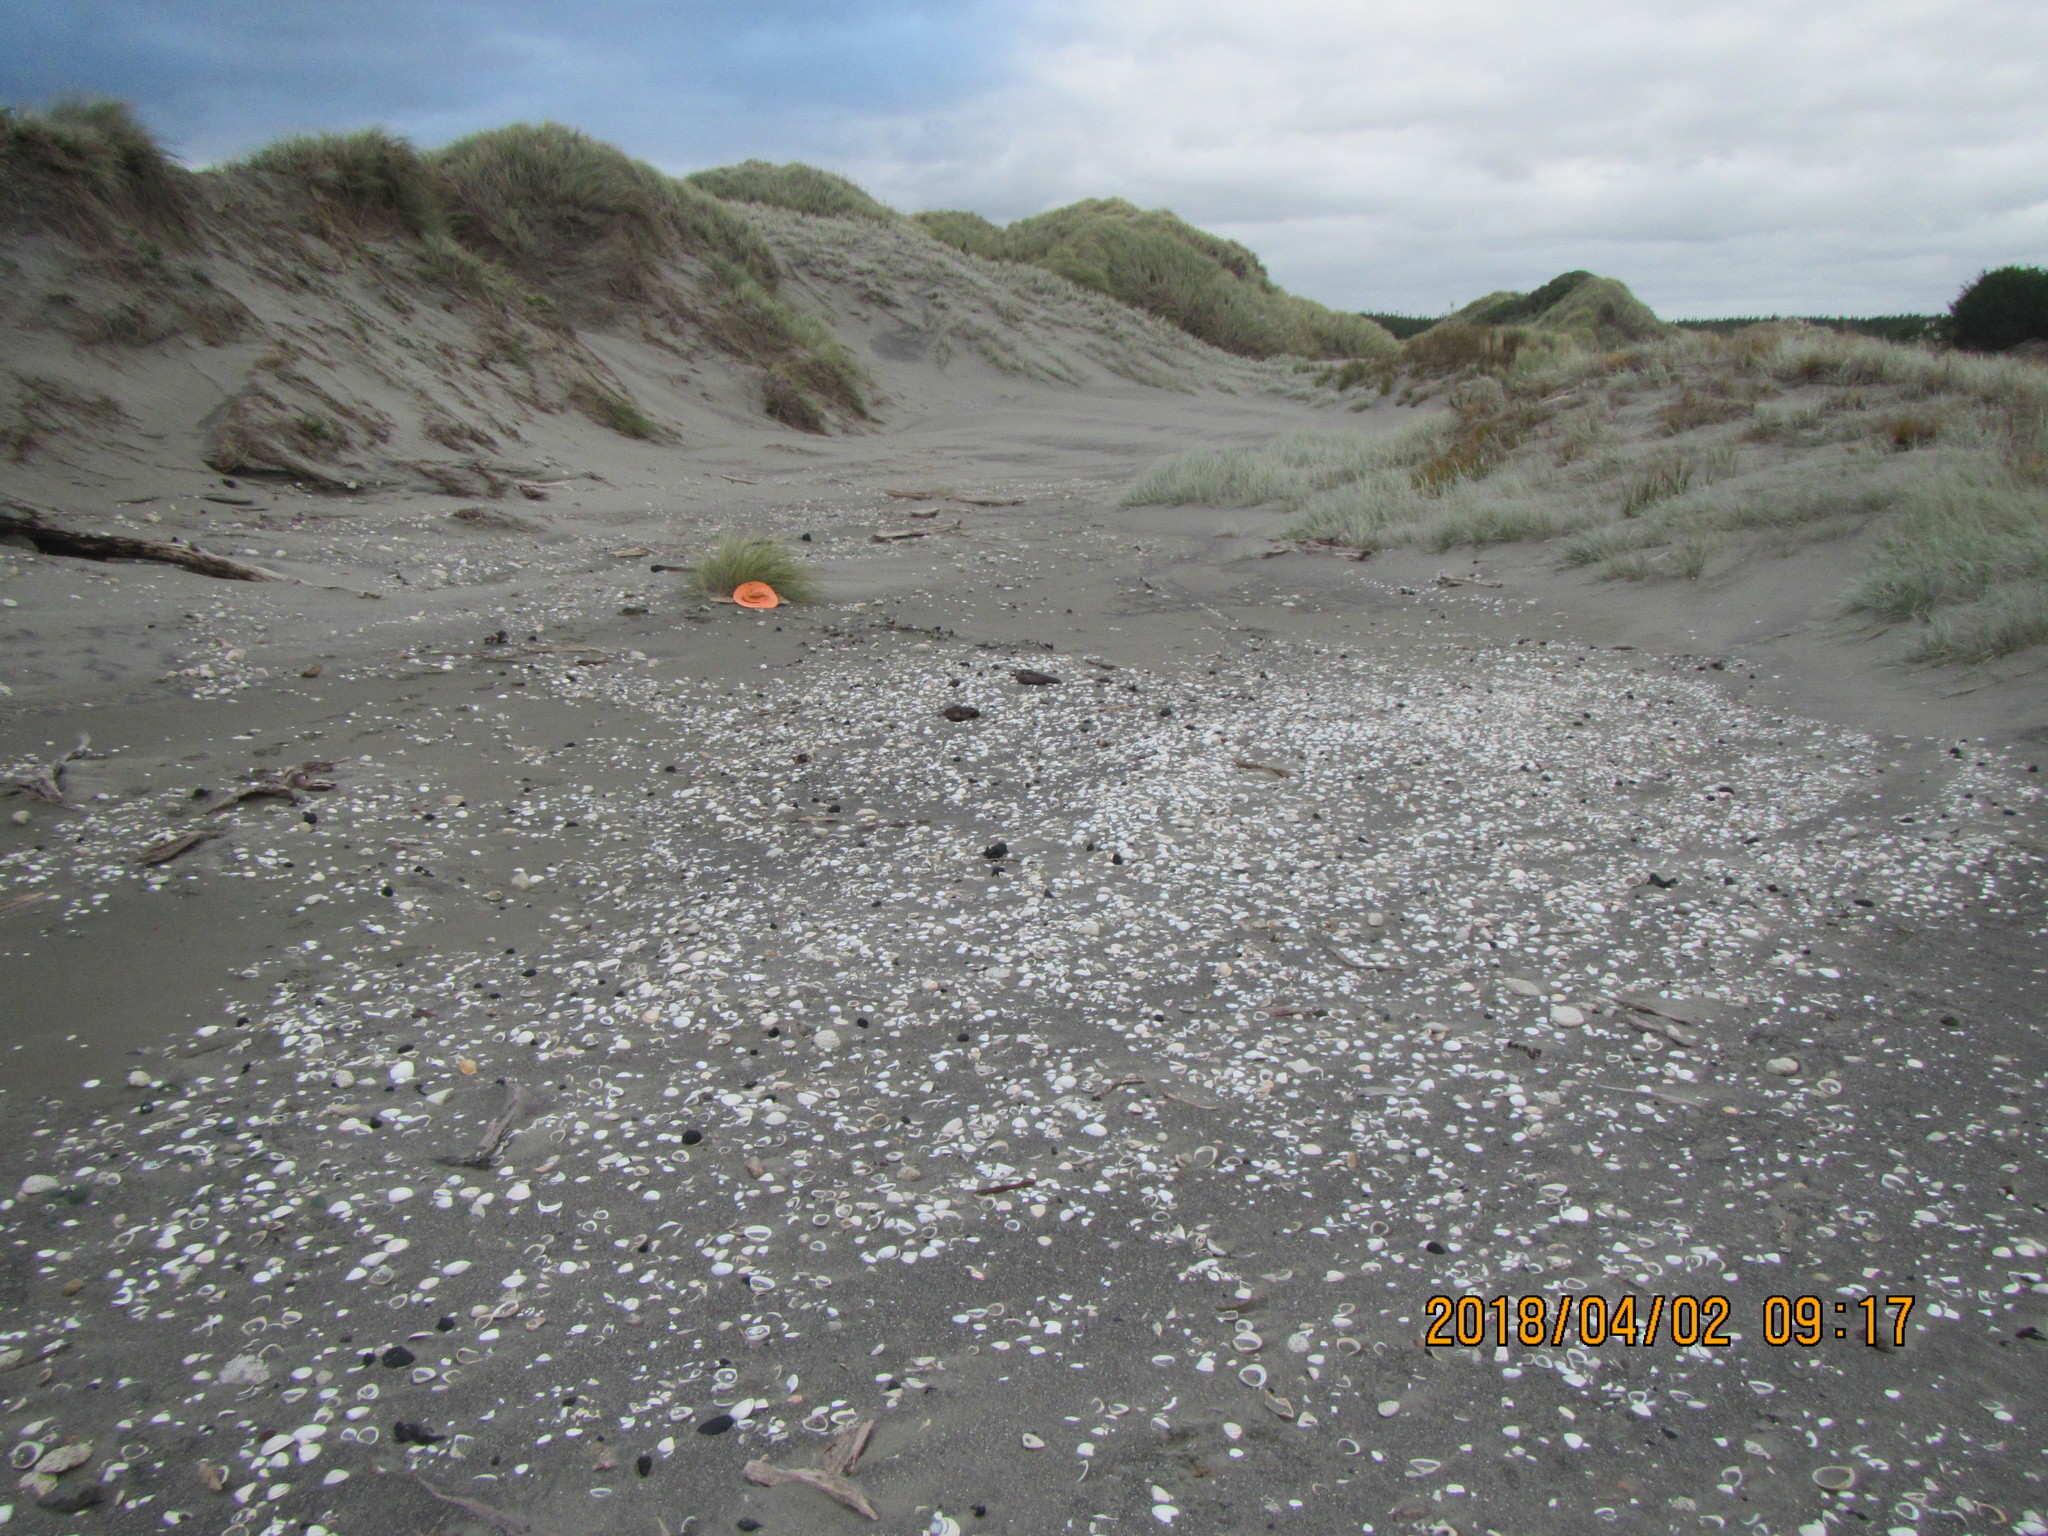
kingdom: Animalia
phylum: Mollusca
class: Gastropoda
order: Stylommatophora
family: Geomitridae
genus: Xeroplexa
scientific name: Xeroplexa intersecta
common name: Wrinkled snail
